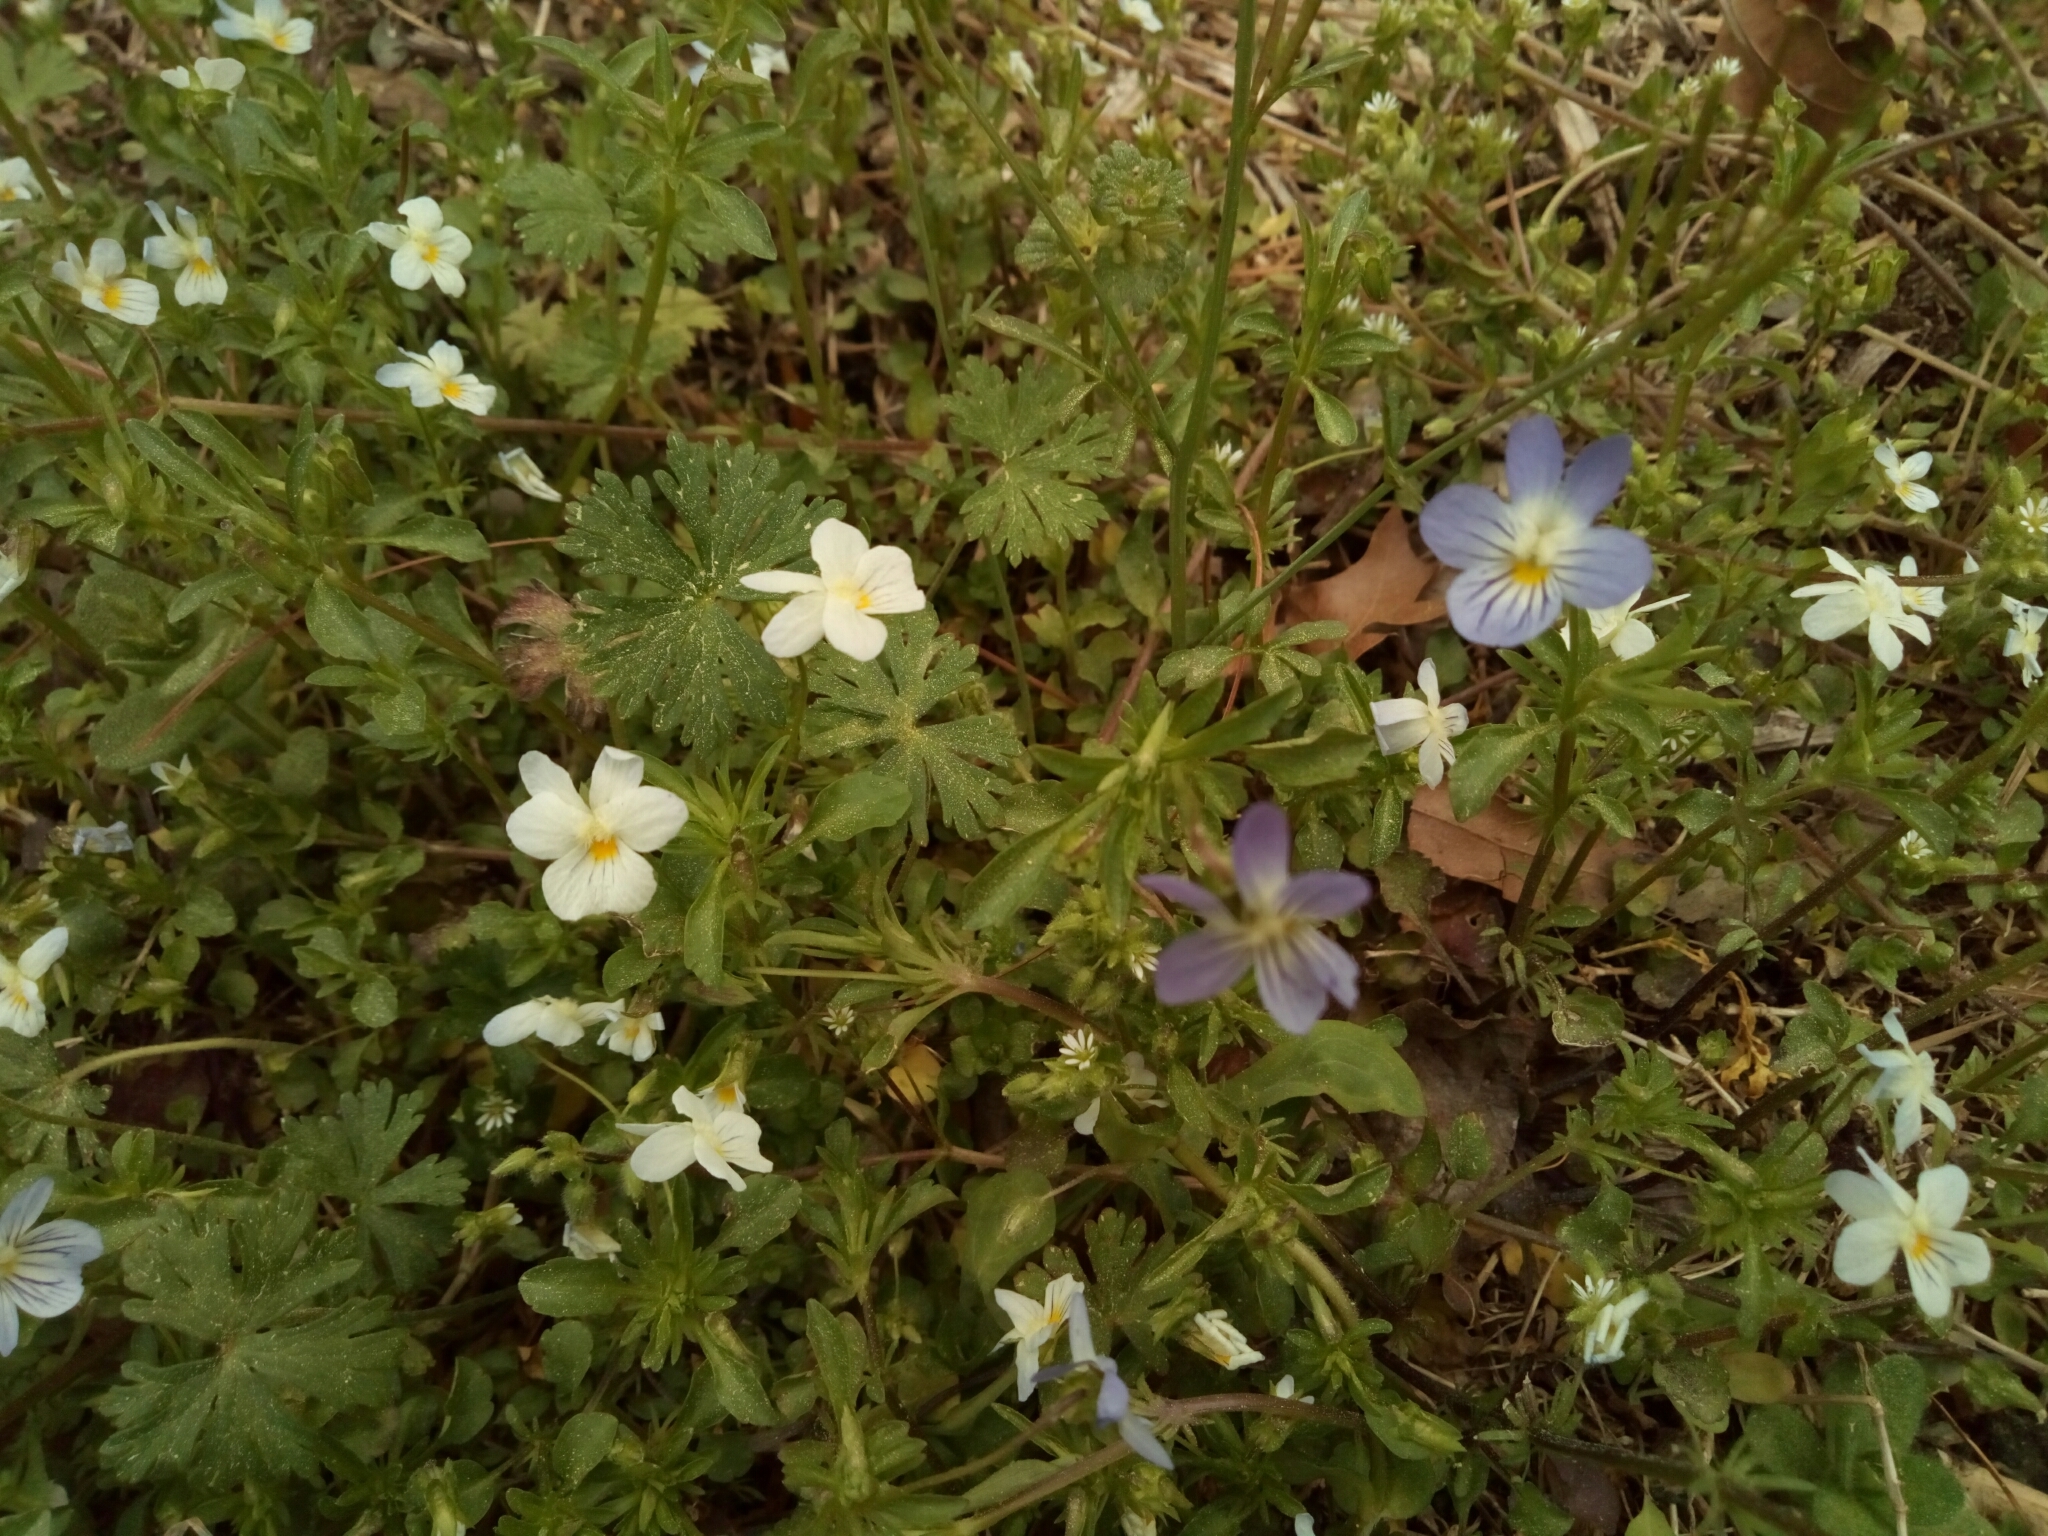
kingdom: Plantae
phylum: Tracheophyta
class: Magnoliopsida
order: Malpighiales
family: Violaceae
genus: Viola
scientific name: Viola rafinesquei
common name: American field pansy
